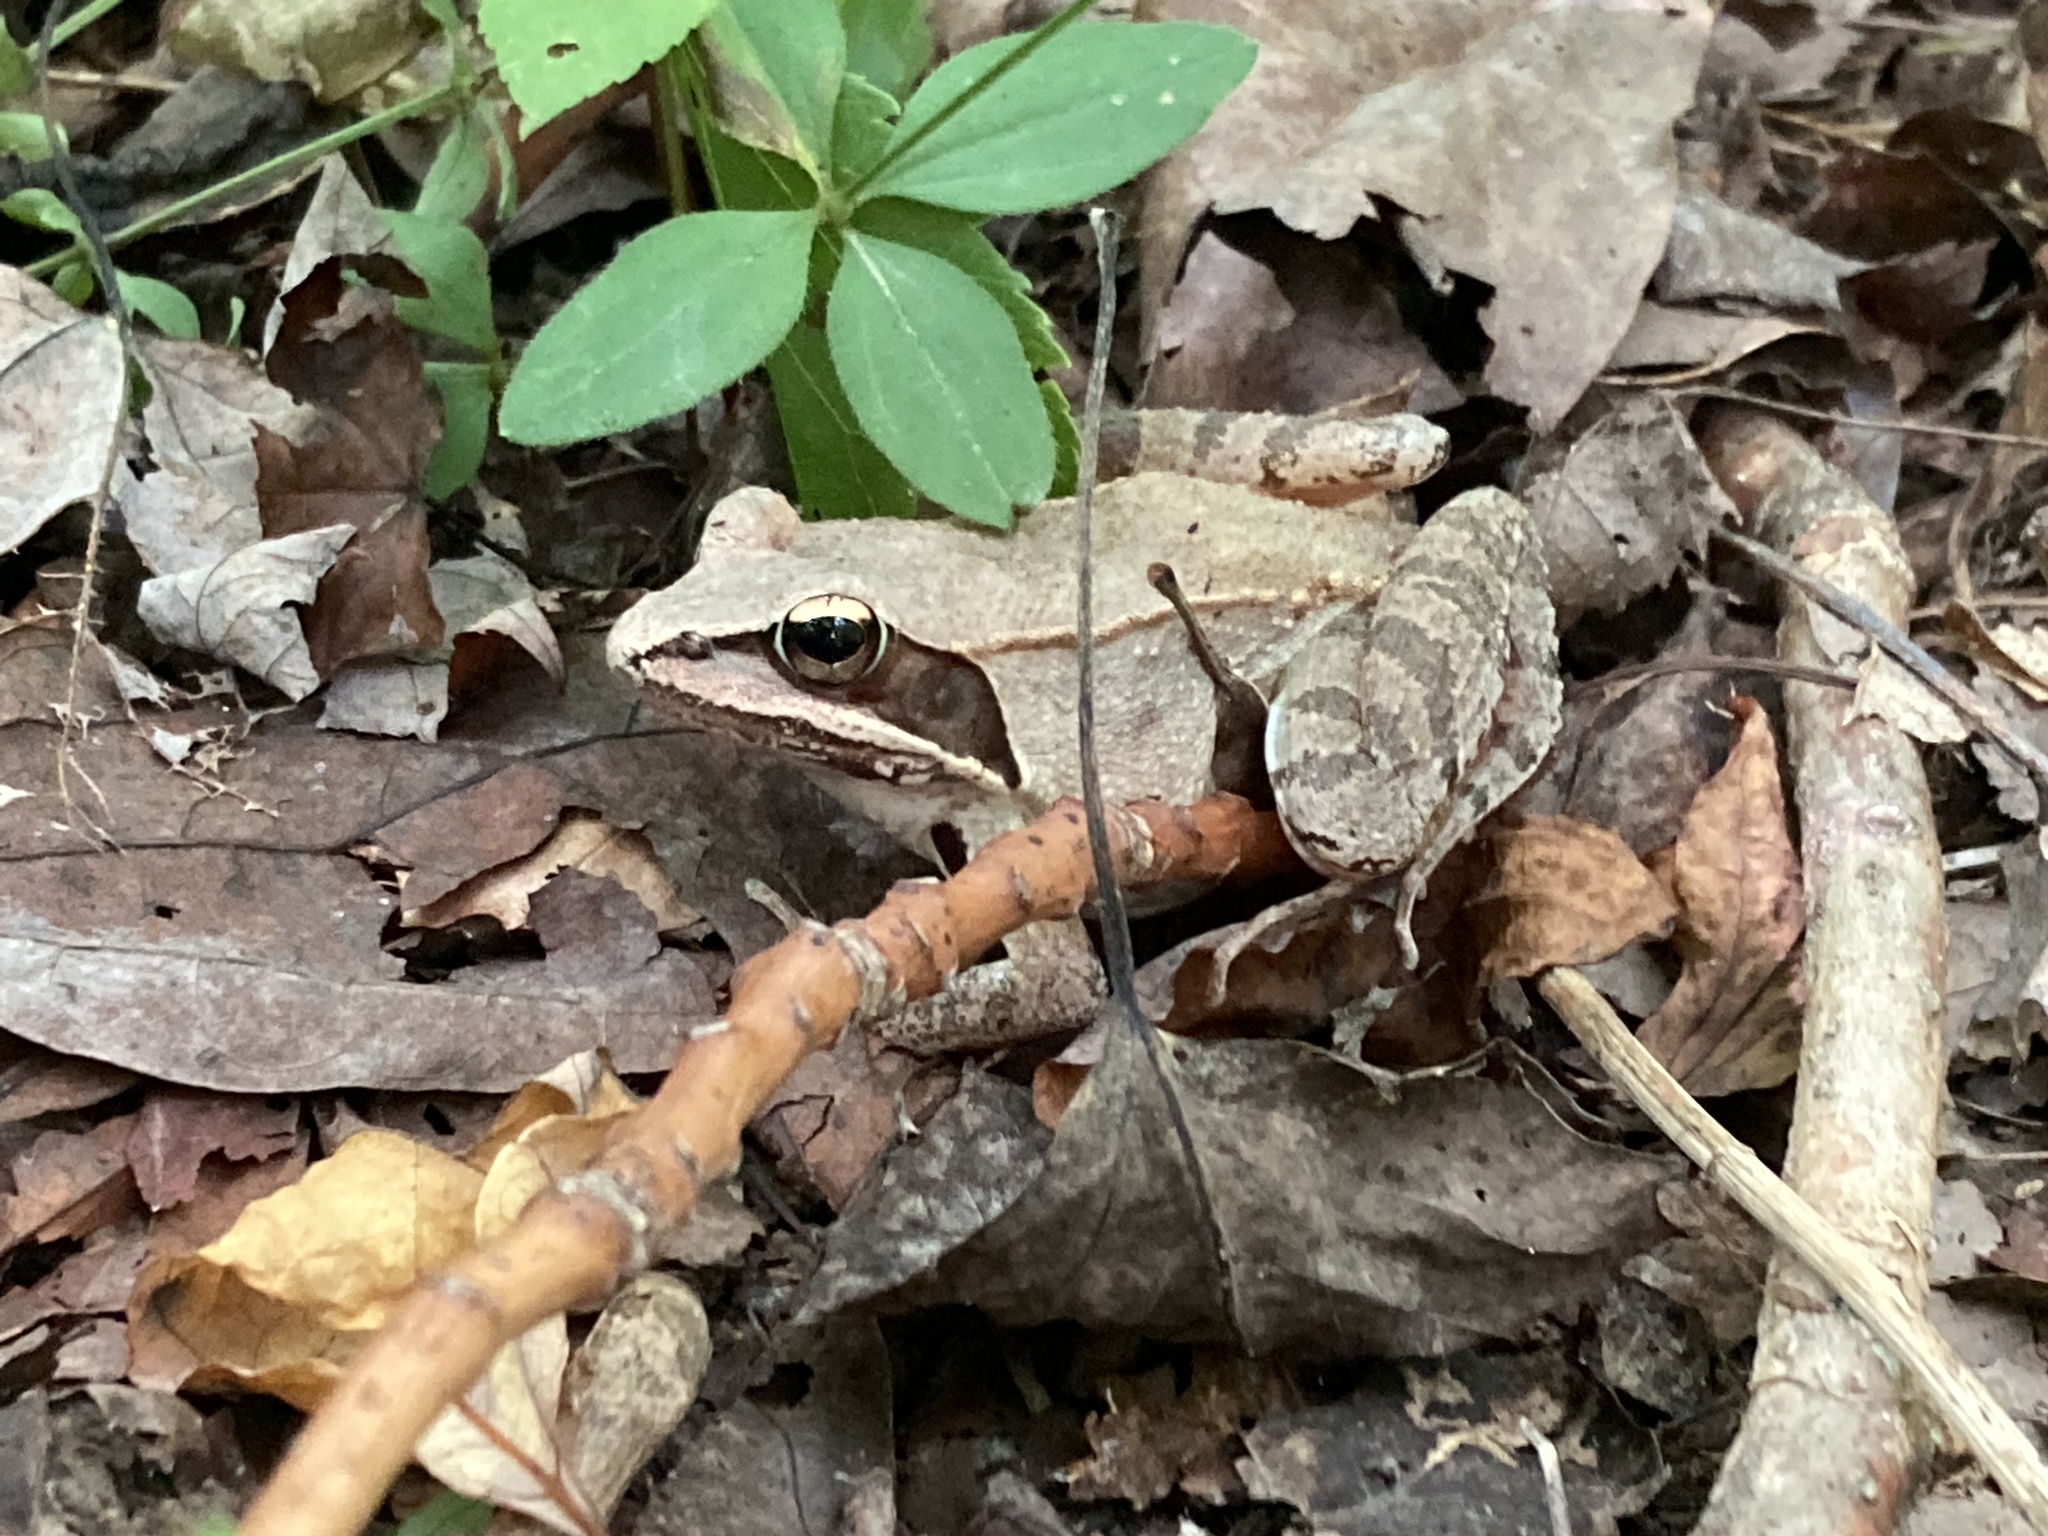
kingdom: Animalia
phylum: Chordata
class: Amphibia
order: Anura
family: Ranidae
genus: Lithobates
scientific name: Lithobates sylvaticus
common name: Wood frog
